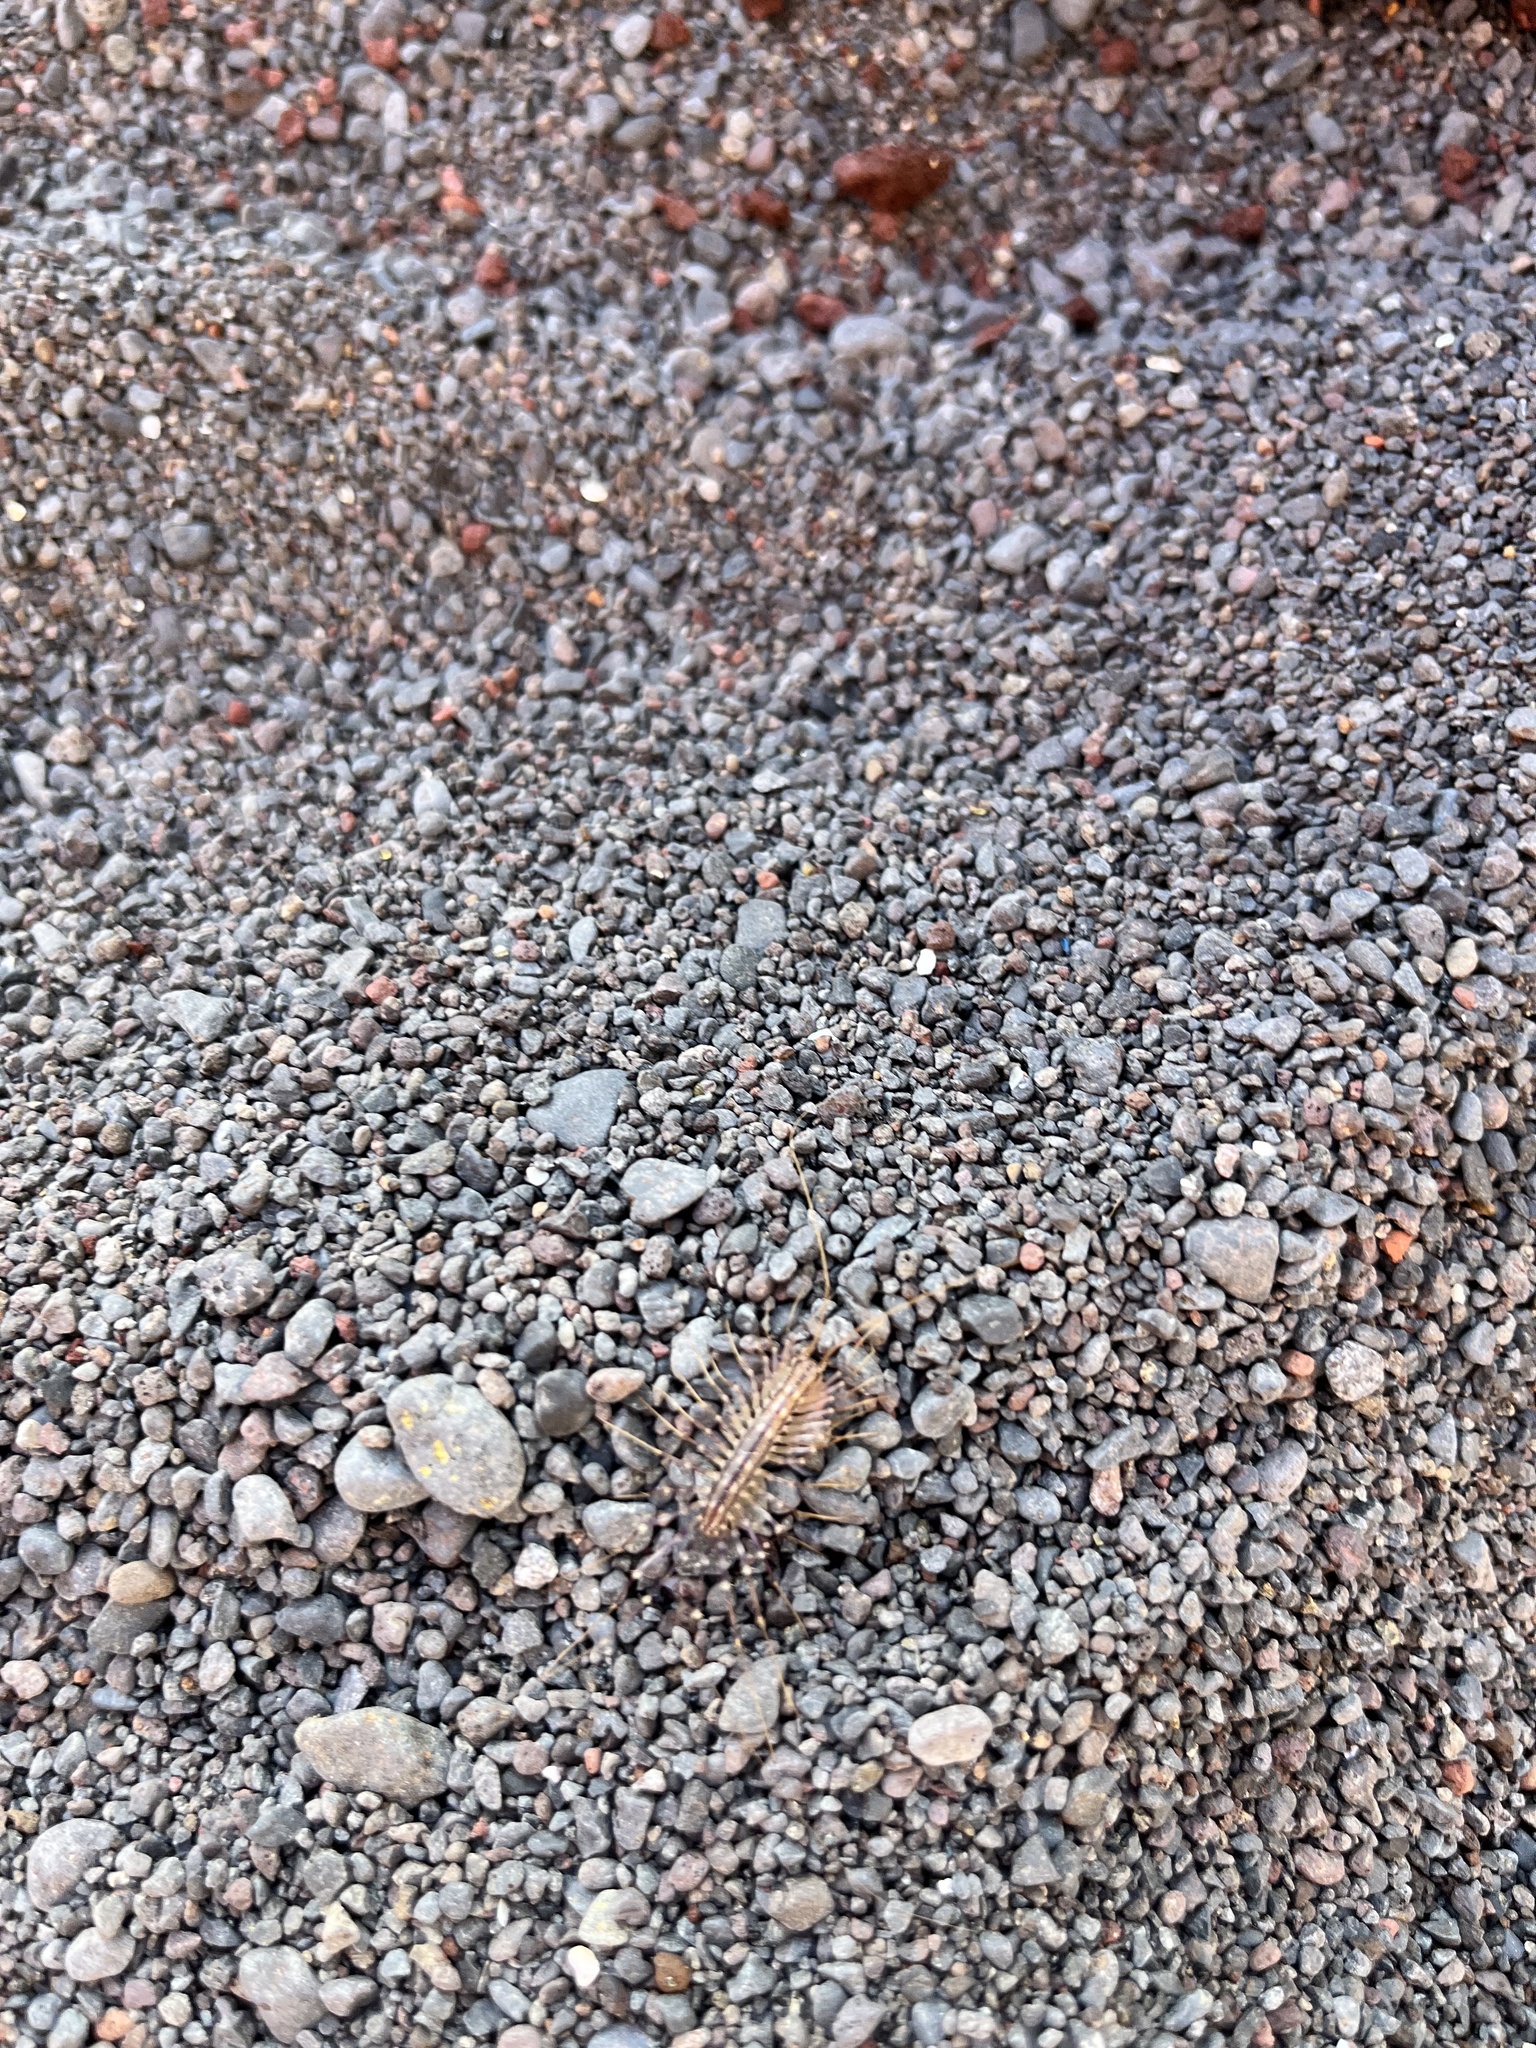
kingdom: Animalia
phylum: Arthropoda
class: Chilopoda
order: Scutigeromorpha
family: Scutigeridae
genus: Scutigera
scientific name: Scutigera coleoptrata
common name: House centipede
